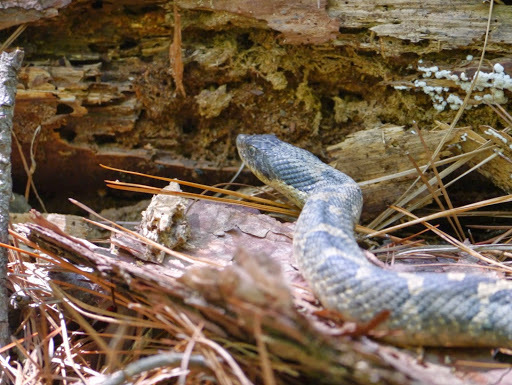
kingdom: Animalia
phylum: Chordata
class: Squamata
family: Colubridae
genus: Heterodon
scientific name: Heterodon platirhinos
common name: Eastern hognose snake
